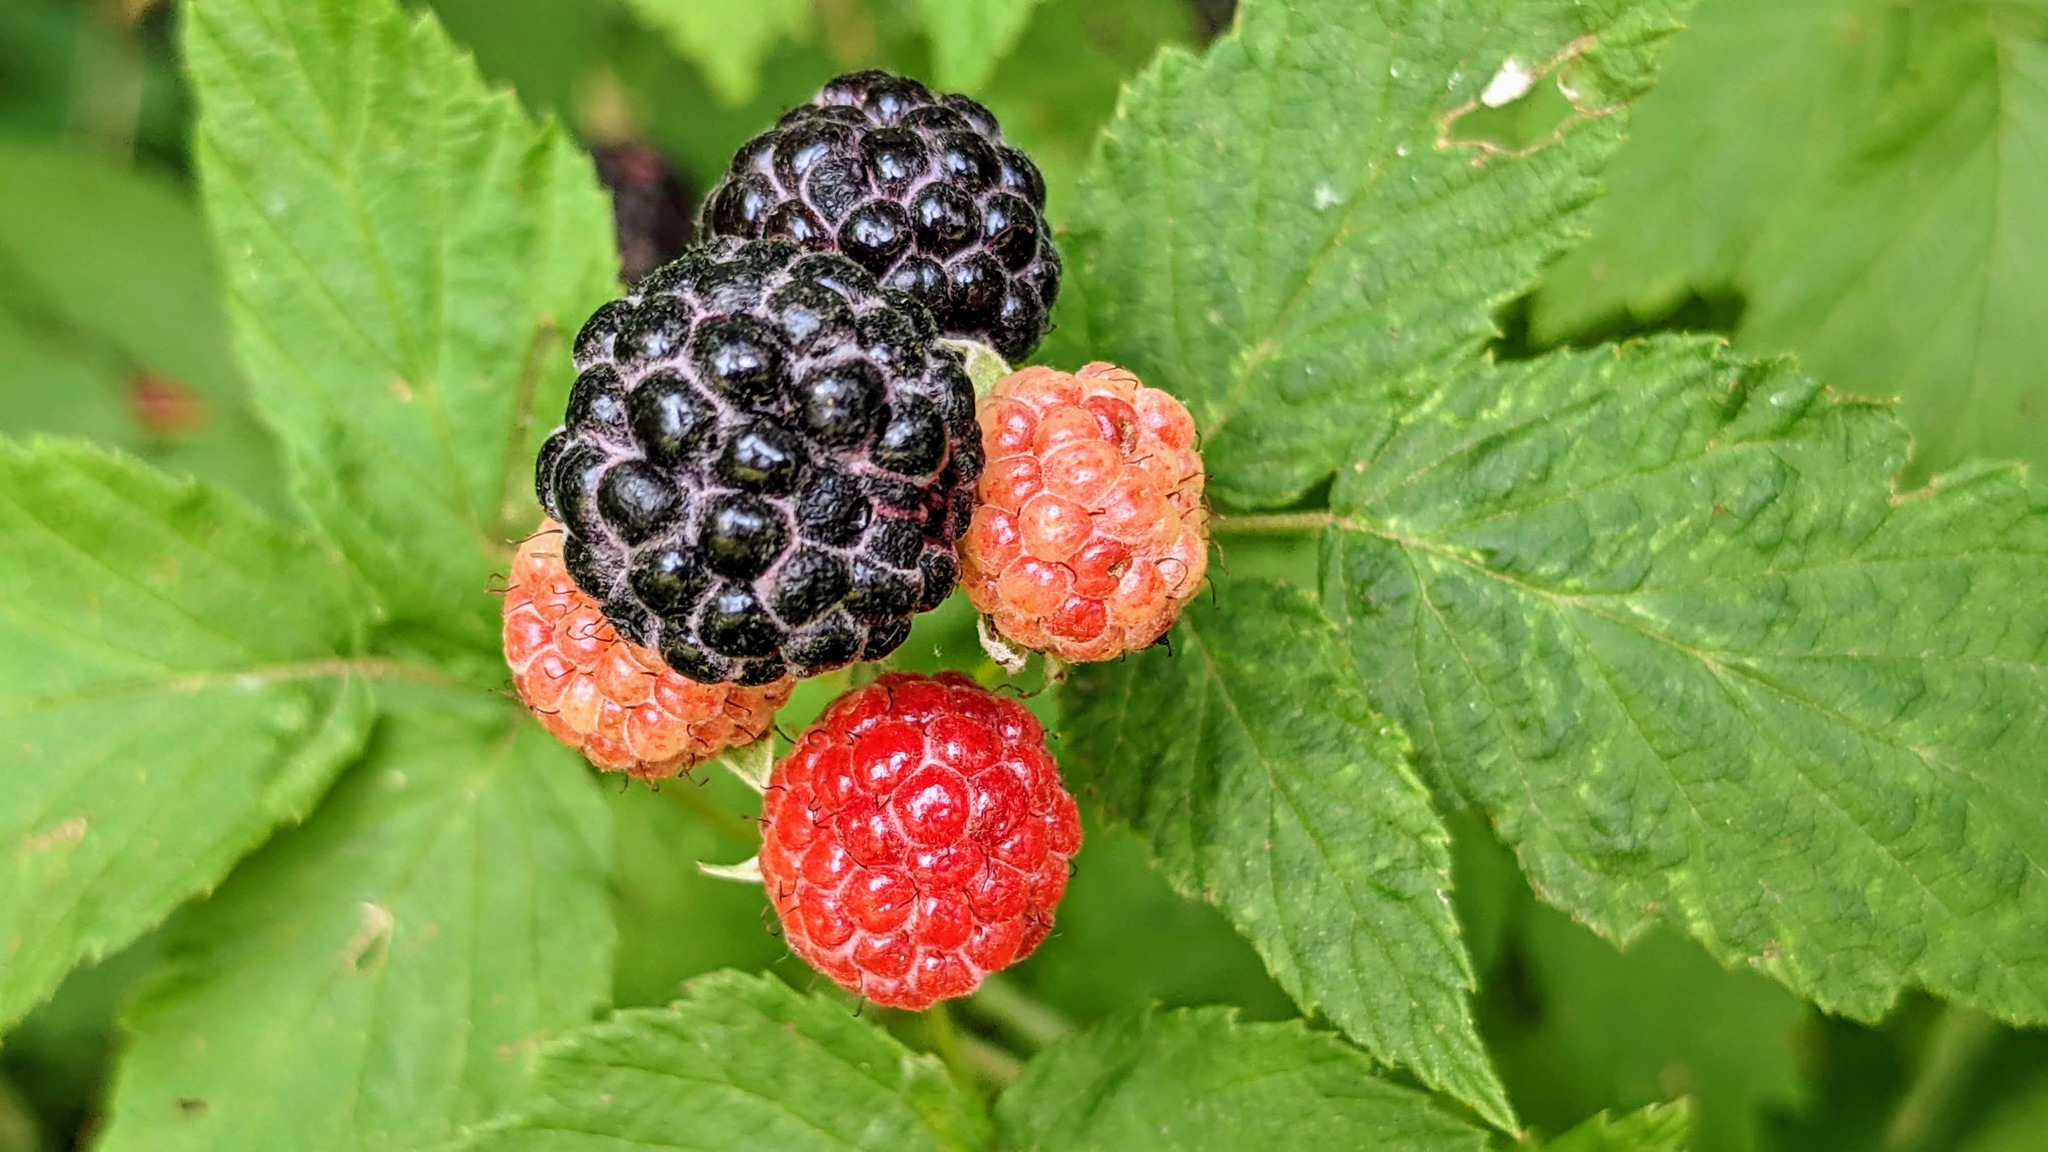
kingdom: Plantae
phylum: Tracheophyta
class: Magnoliopsida
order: Rosales
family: Rosaceae
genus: Rubus
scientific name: Rubus occidentalis
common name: Black raspberry
